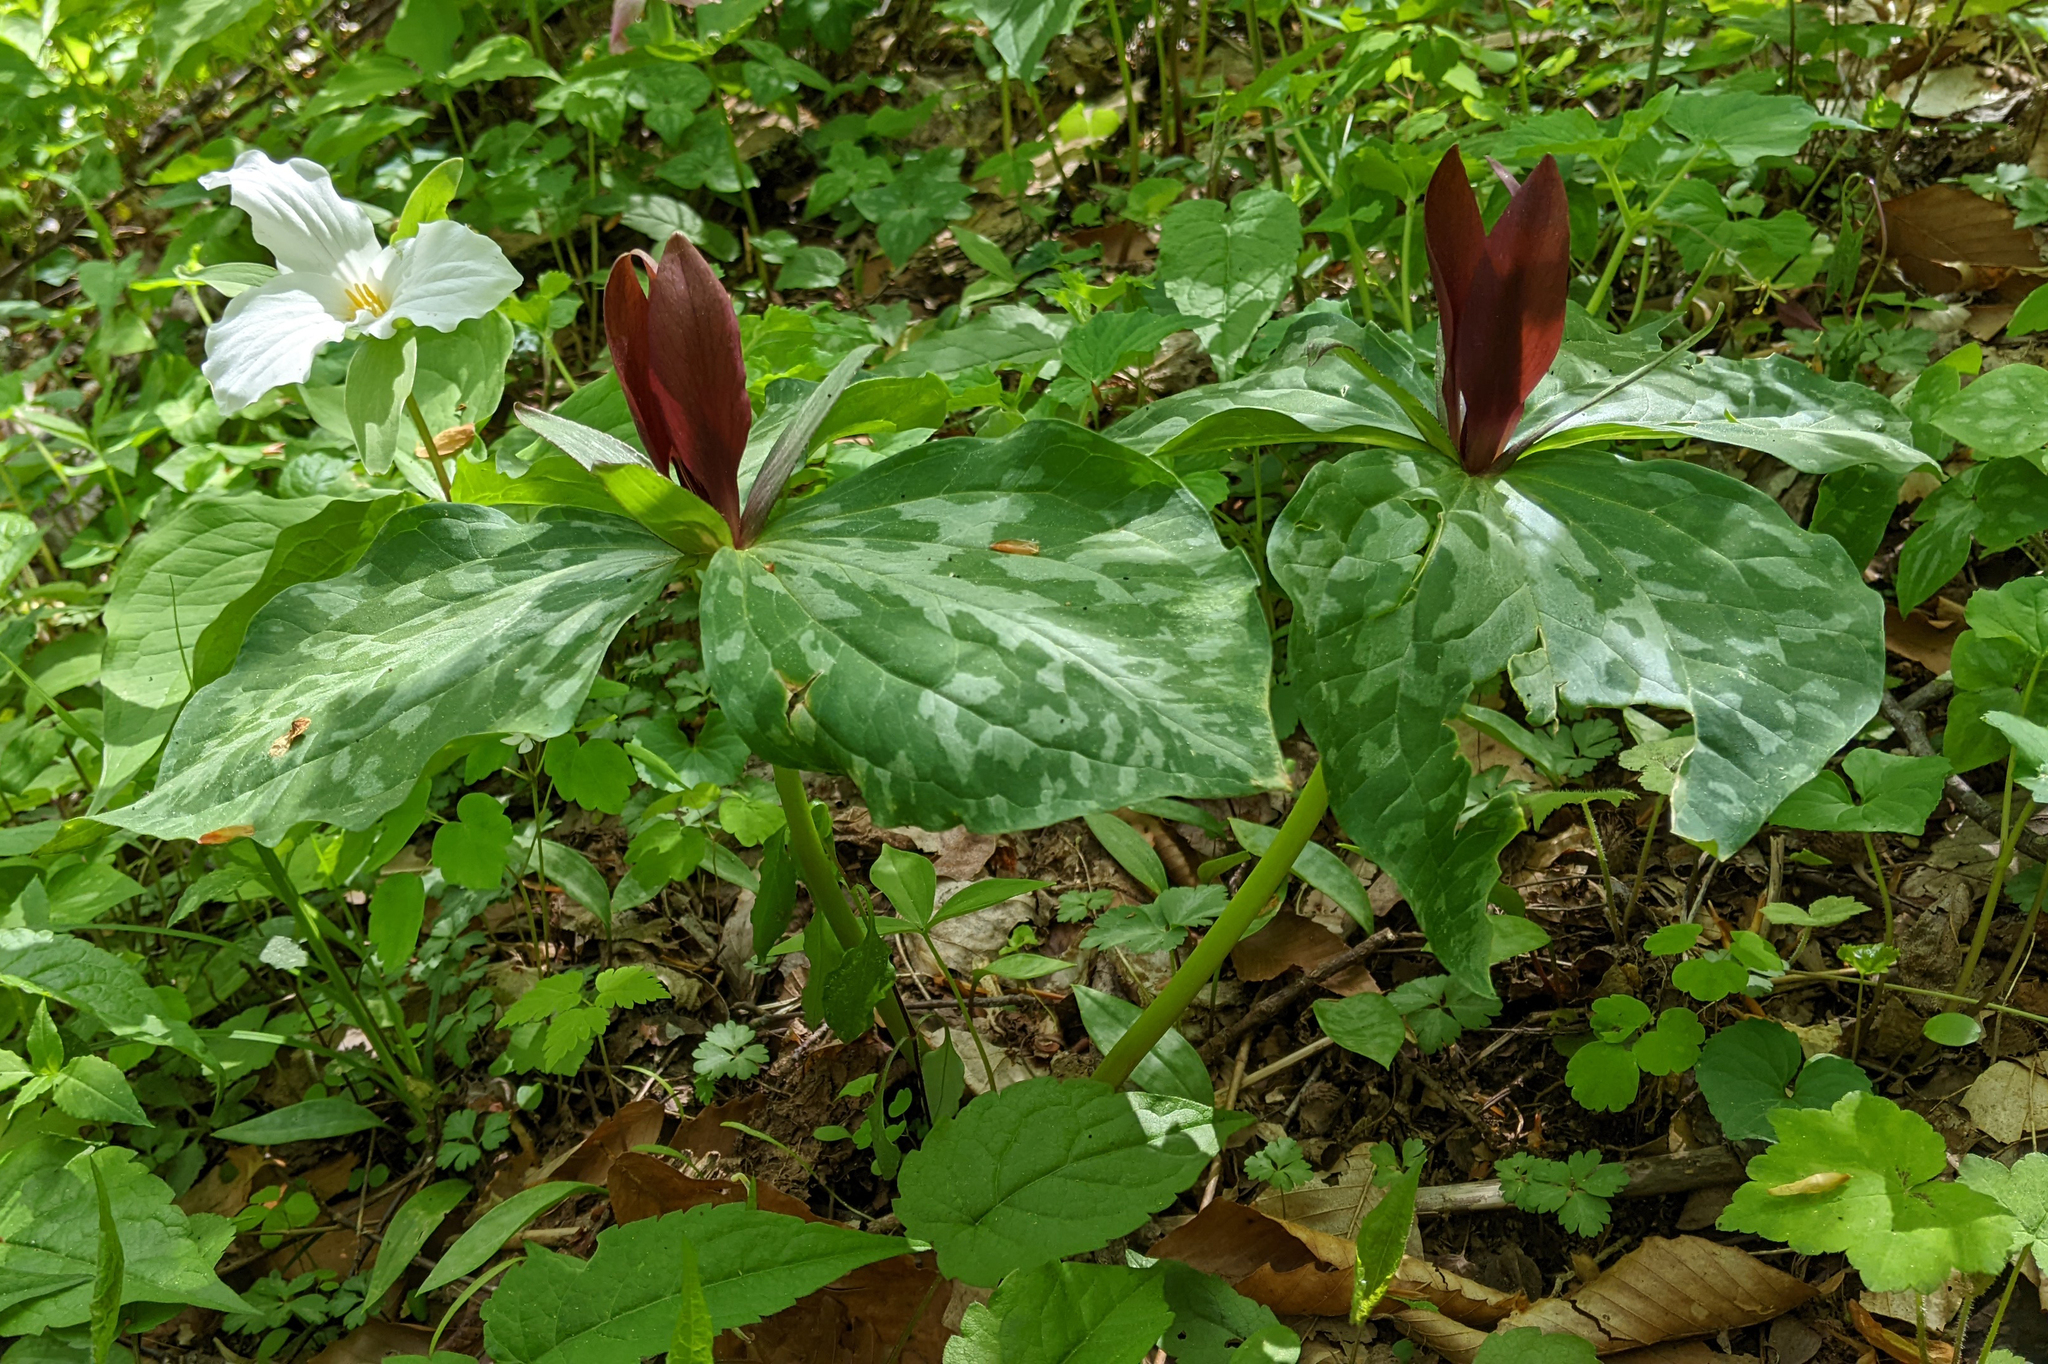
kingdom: Plantae
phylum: Tracheophyta
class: Liliopsida
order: Liliales
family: Melanthiaceae
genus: Trillium
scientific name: Trillium cuneatum
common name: Cuneate trillium
